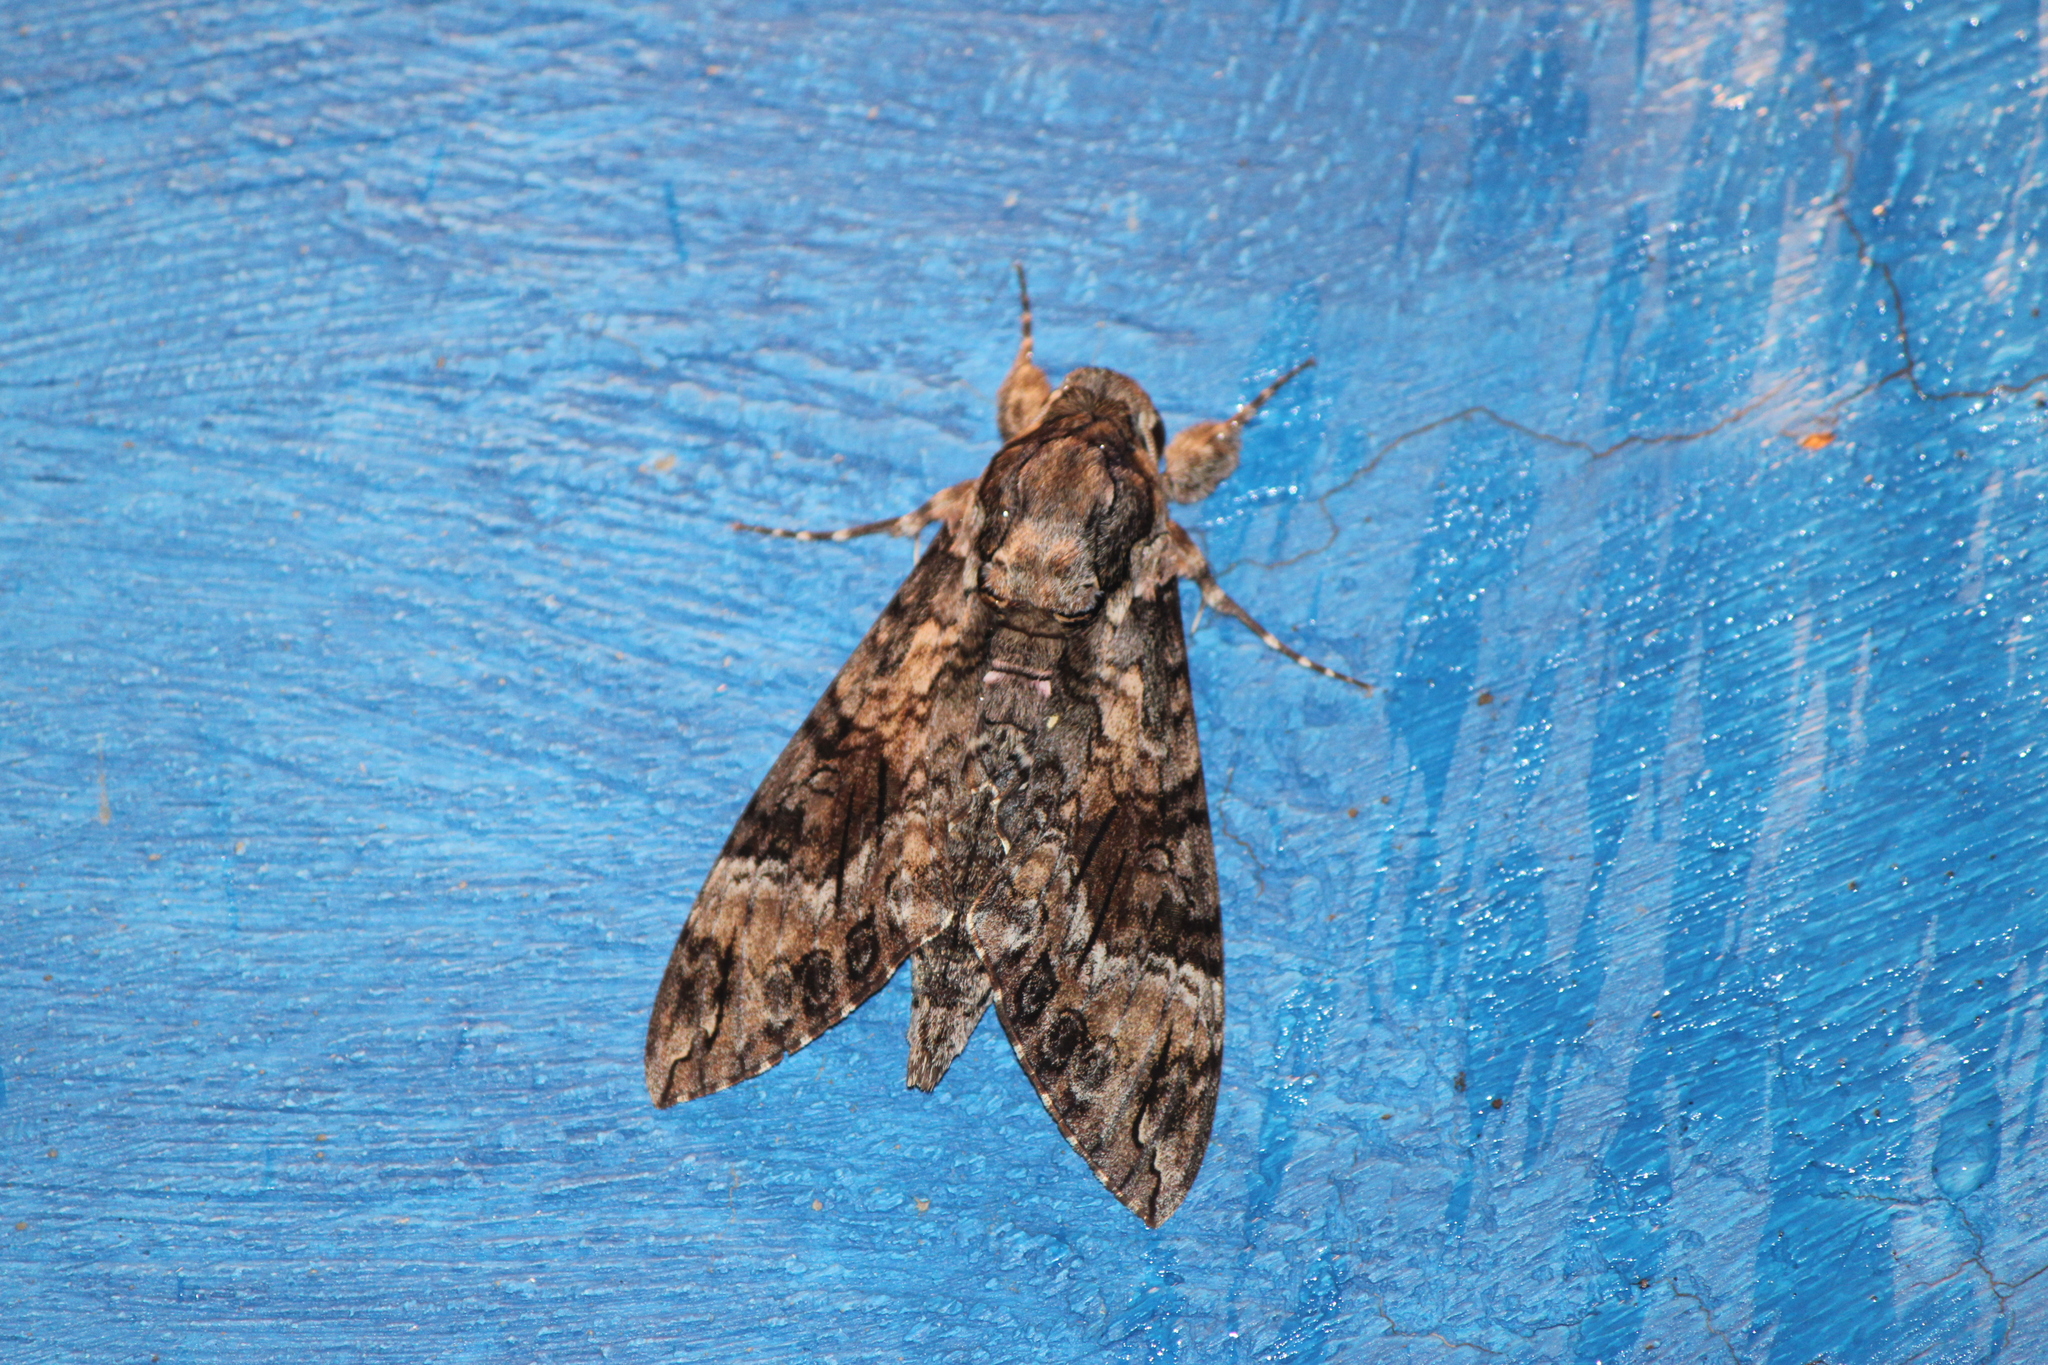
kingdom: Animalia
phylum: Arthropoda
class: Insecta
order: Lepidoptera
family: Sphingidae
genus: Agrius
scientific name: Agrius cingulata
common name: Pink-spotted hawkmoth
